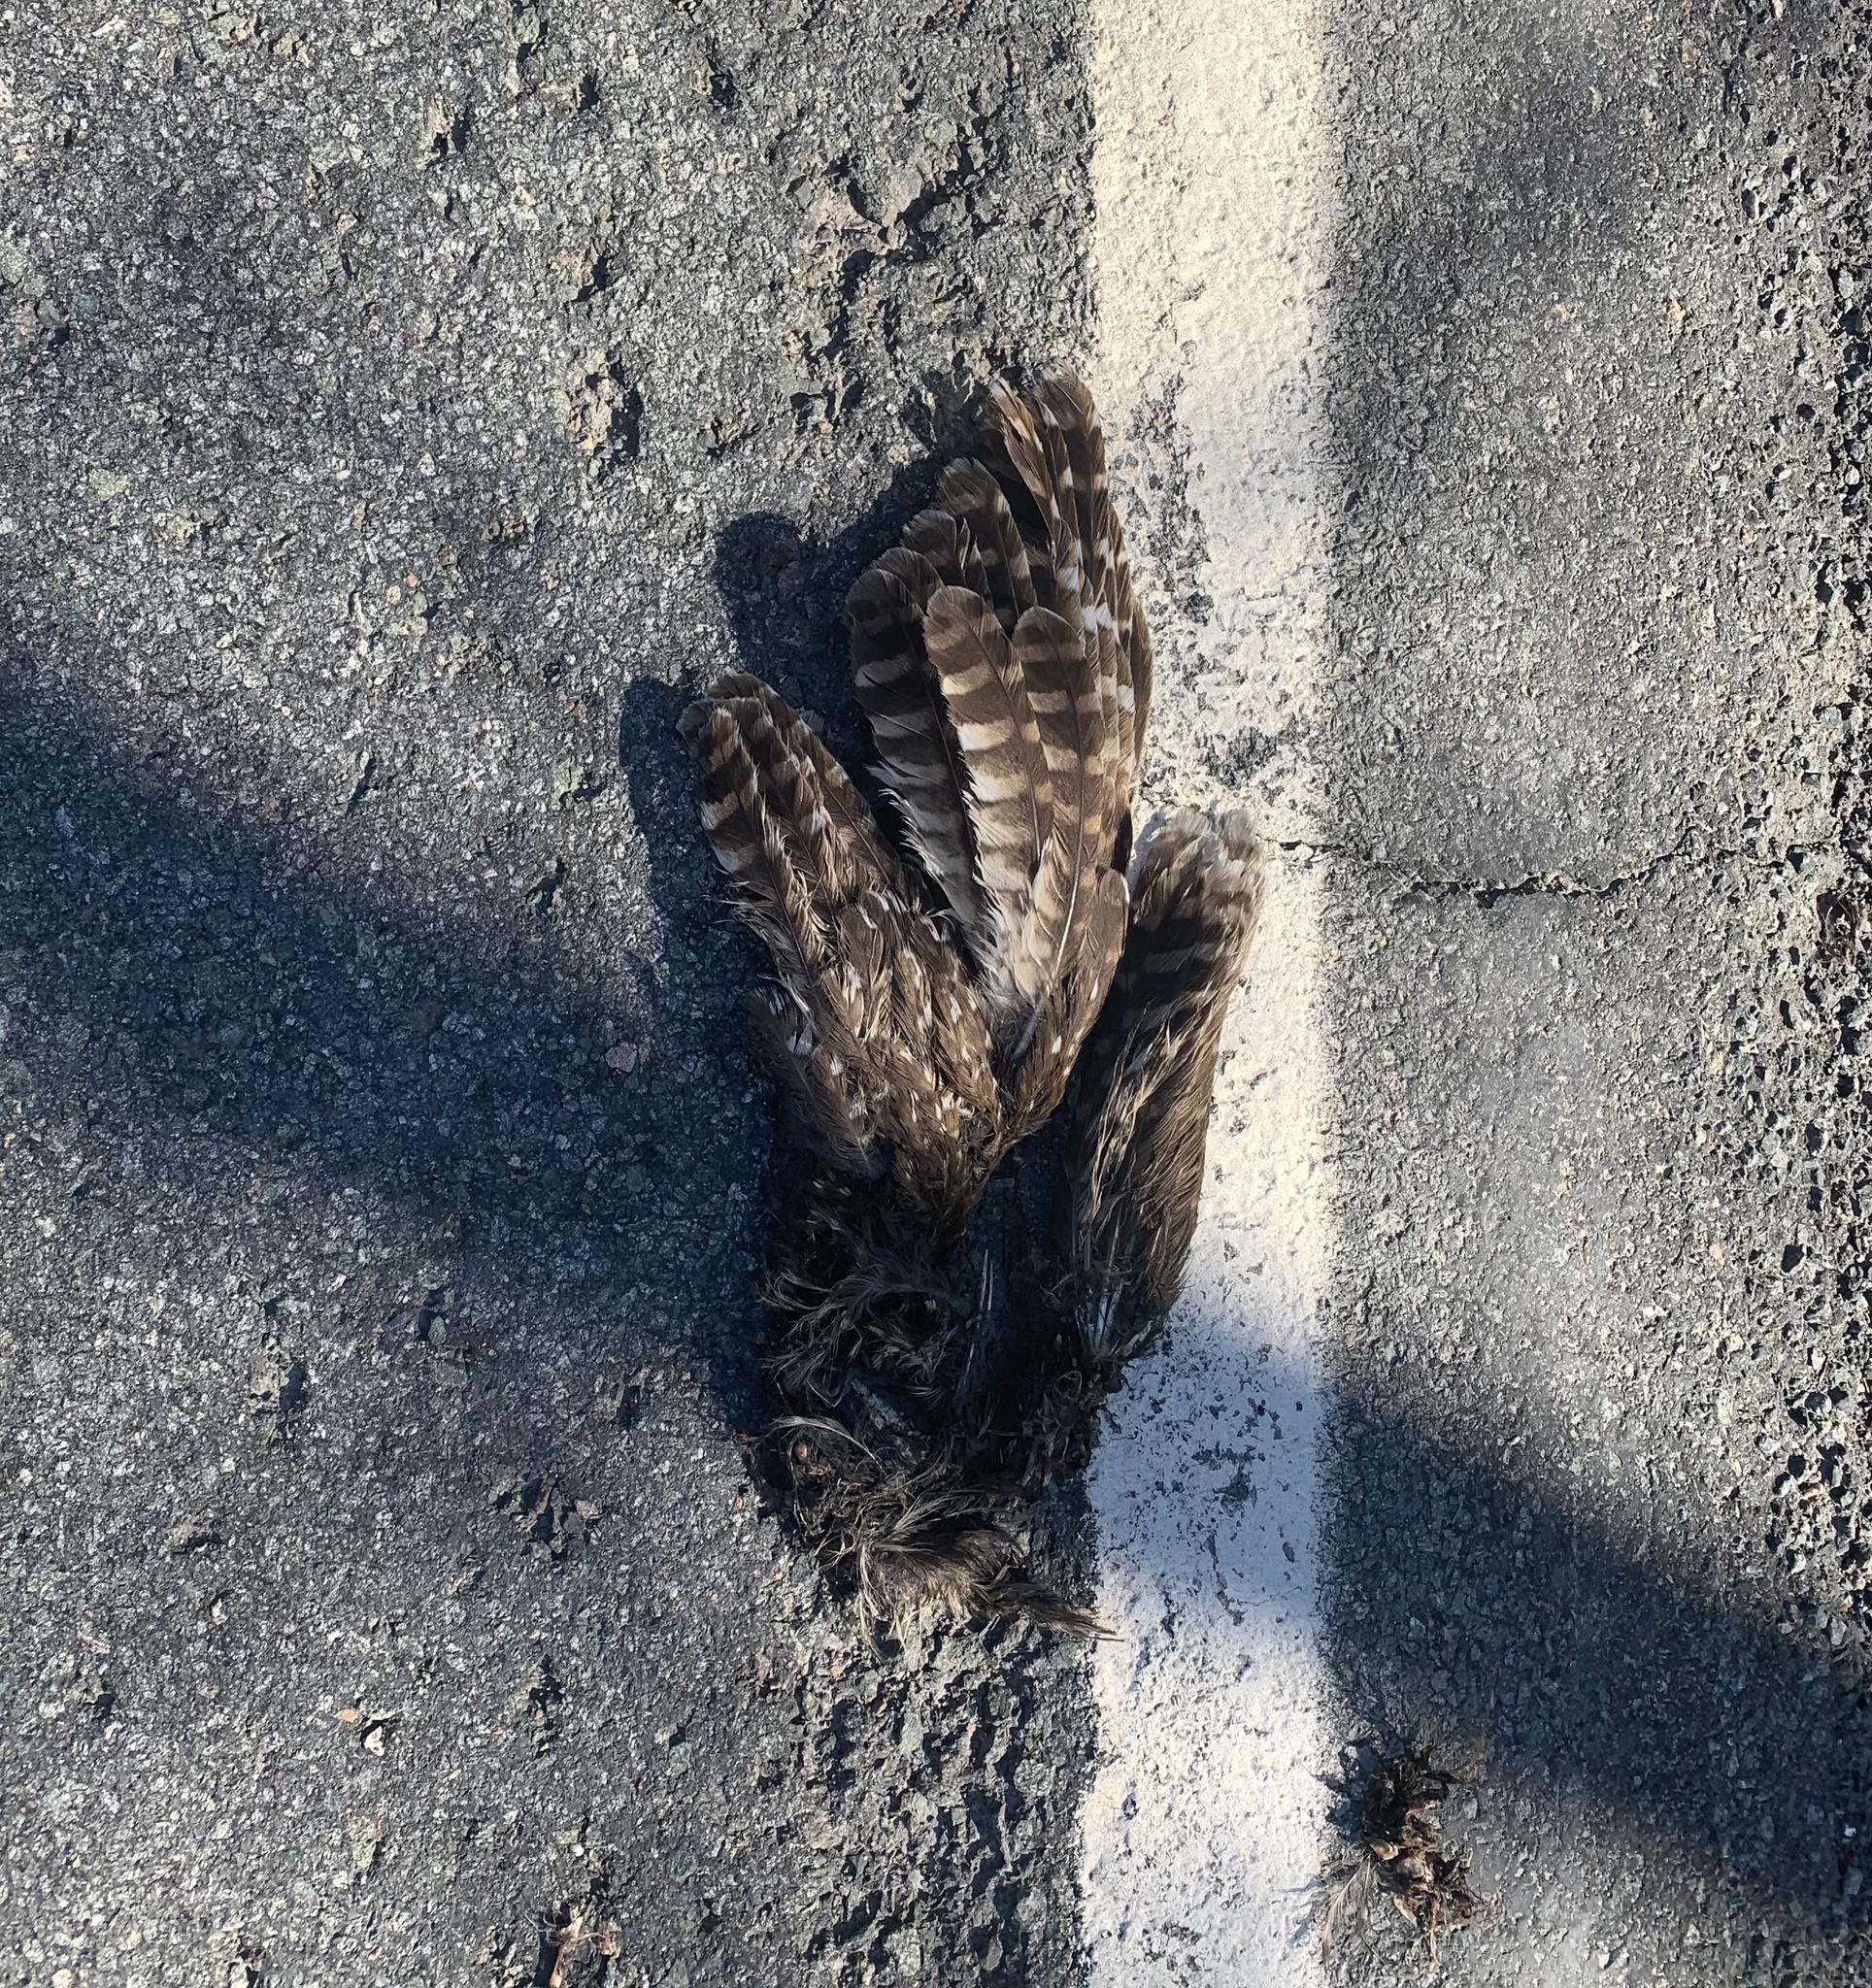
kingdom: Animalia
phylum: Chordata
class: Aves
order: Strigiformes
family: Strigidae
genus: Strix
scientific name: Strix varia
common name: Barred owl
